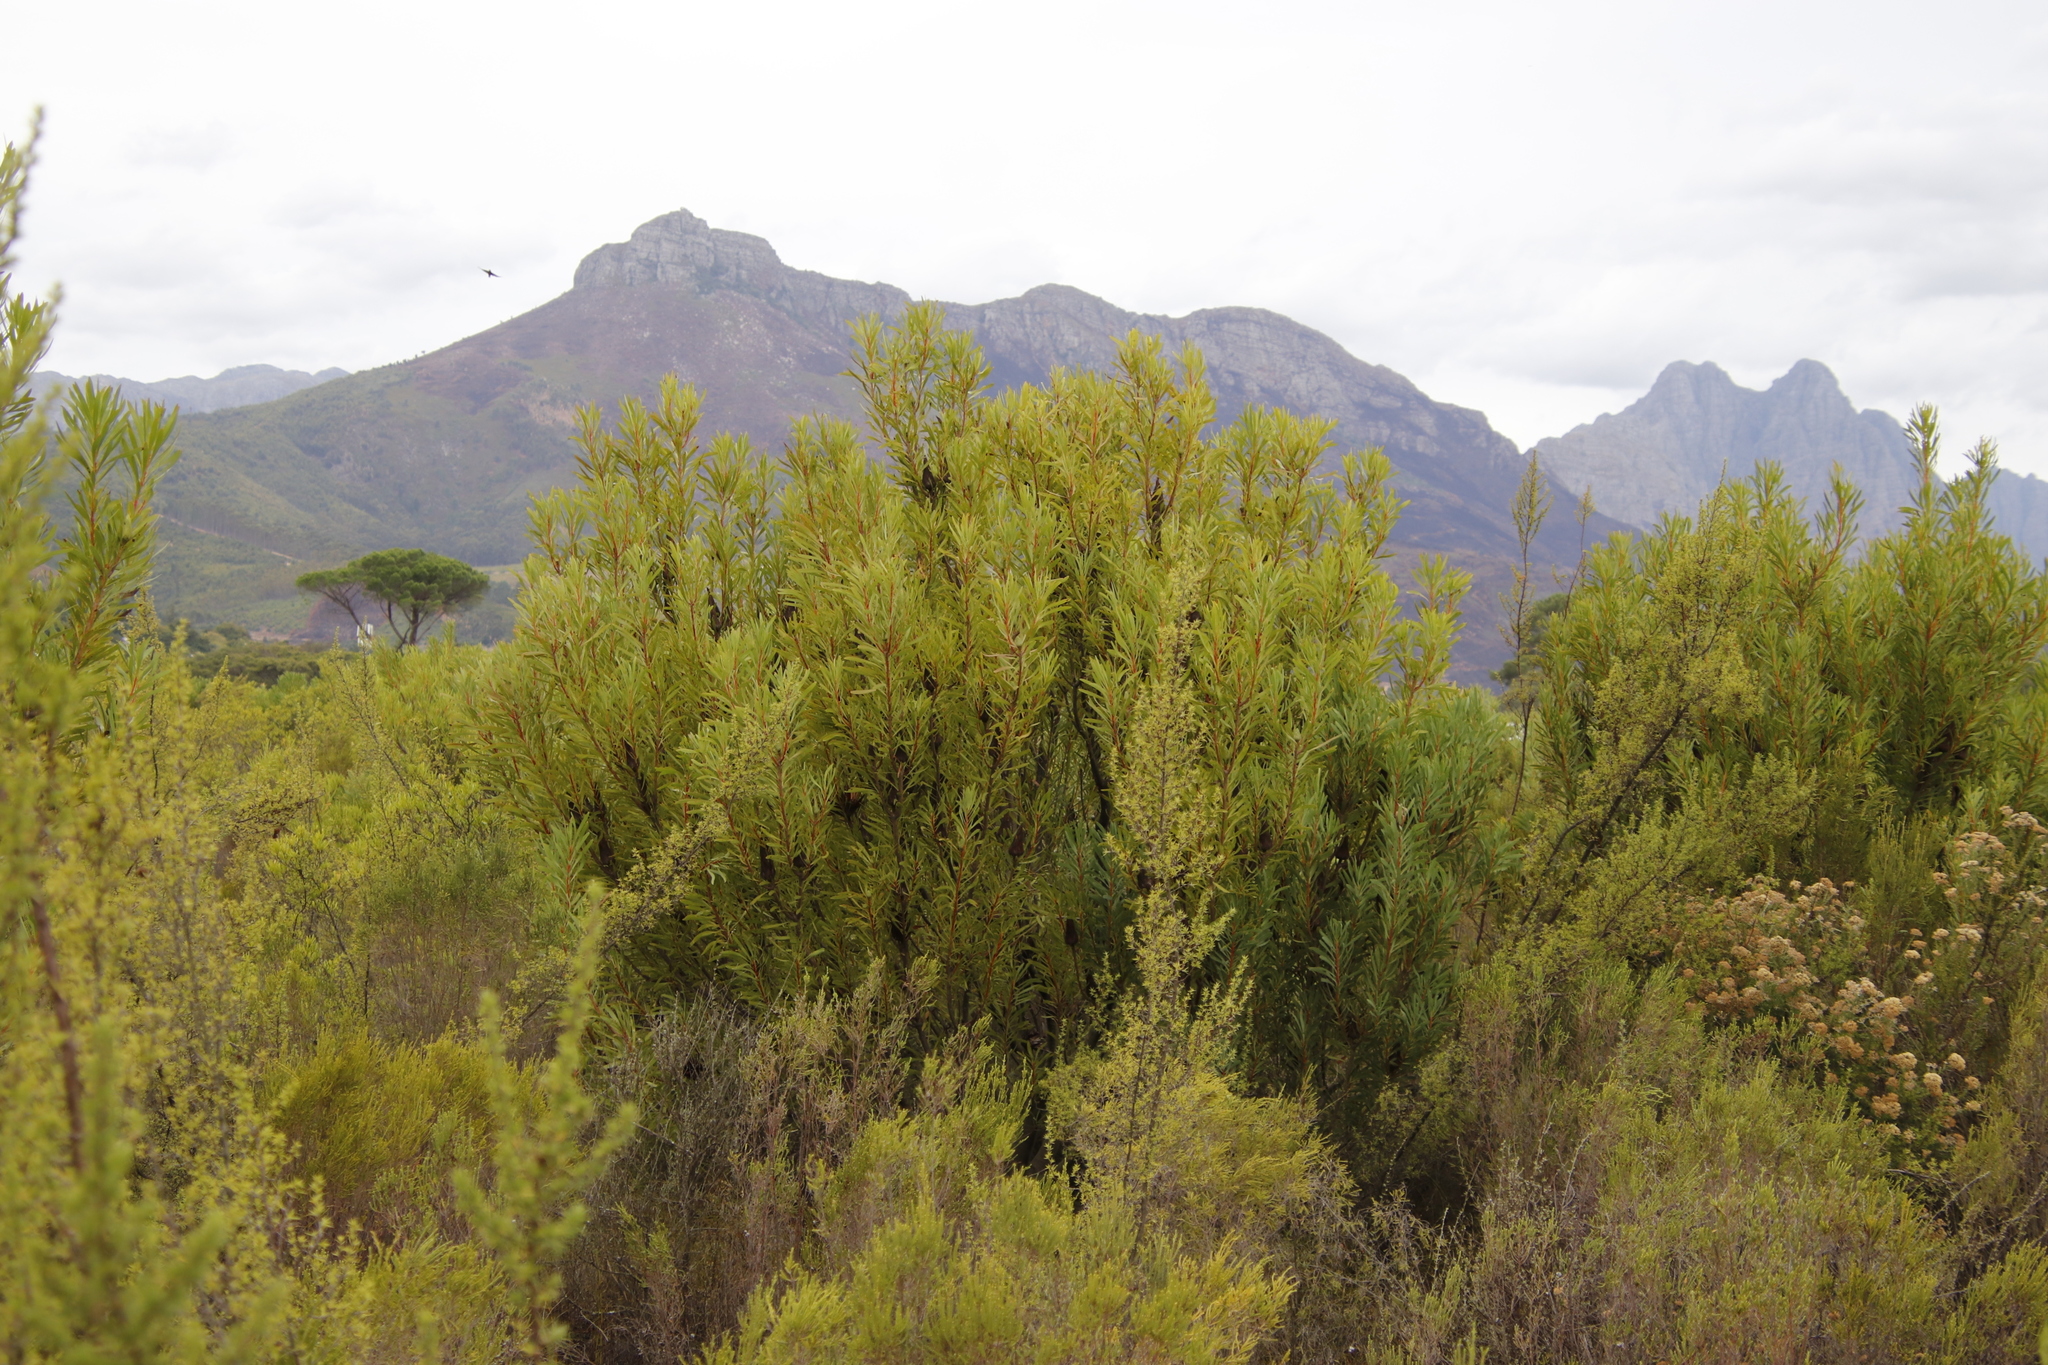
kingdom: Plantae
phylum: Tracheophyta
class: Magnoliopsida
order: Proteales
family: Proteaceae
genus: Protea
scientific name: Protea repens
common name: Sugarbush
